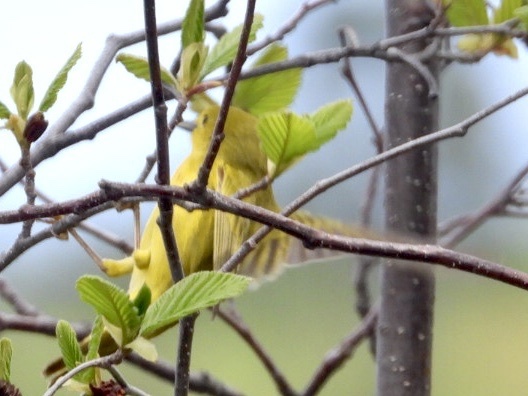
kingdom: Animalia
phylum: Chordata
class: Aves
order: Passeriformes
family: Parulidae
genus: Setophaga
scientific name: Setophaga petechia
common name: Yellow warbler
